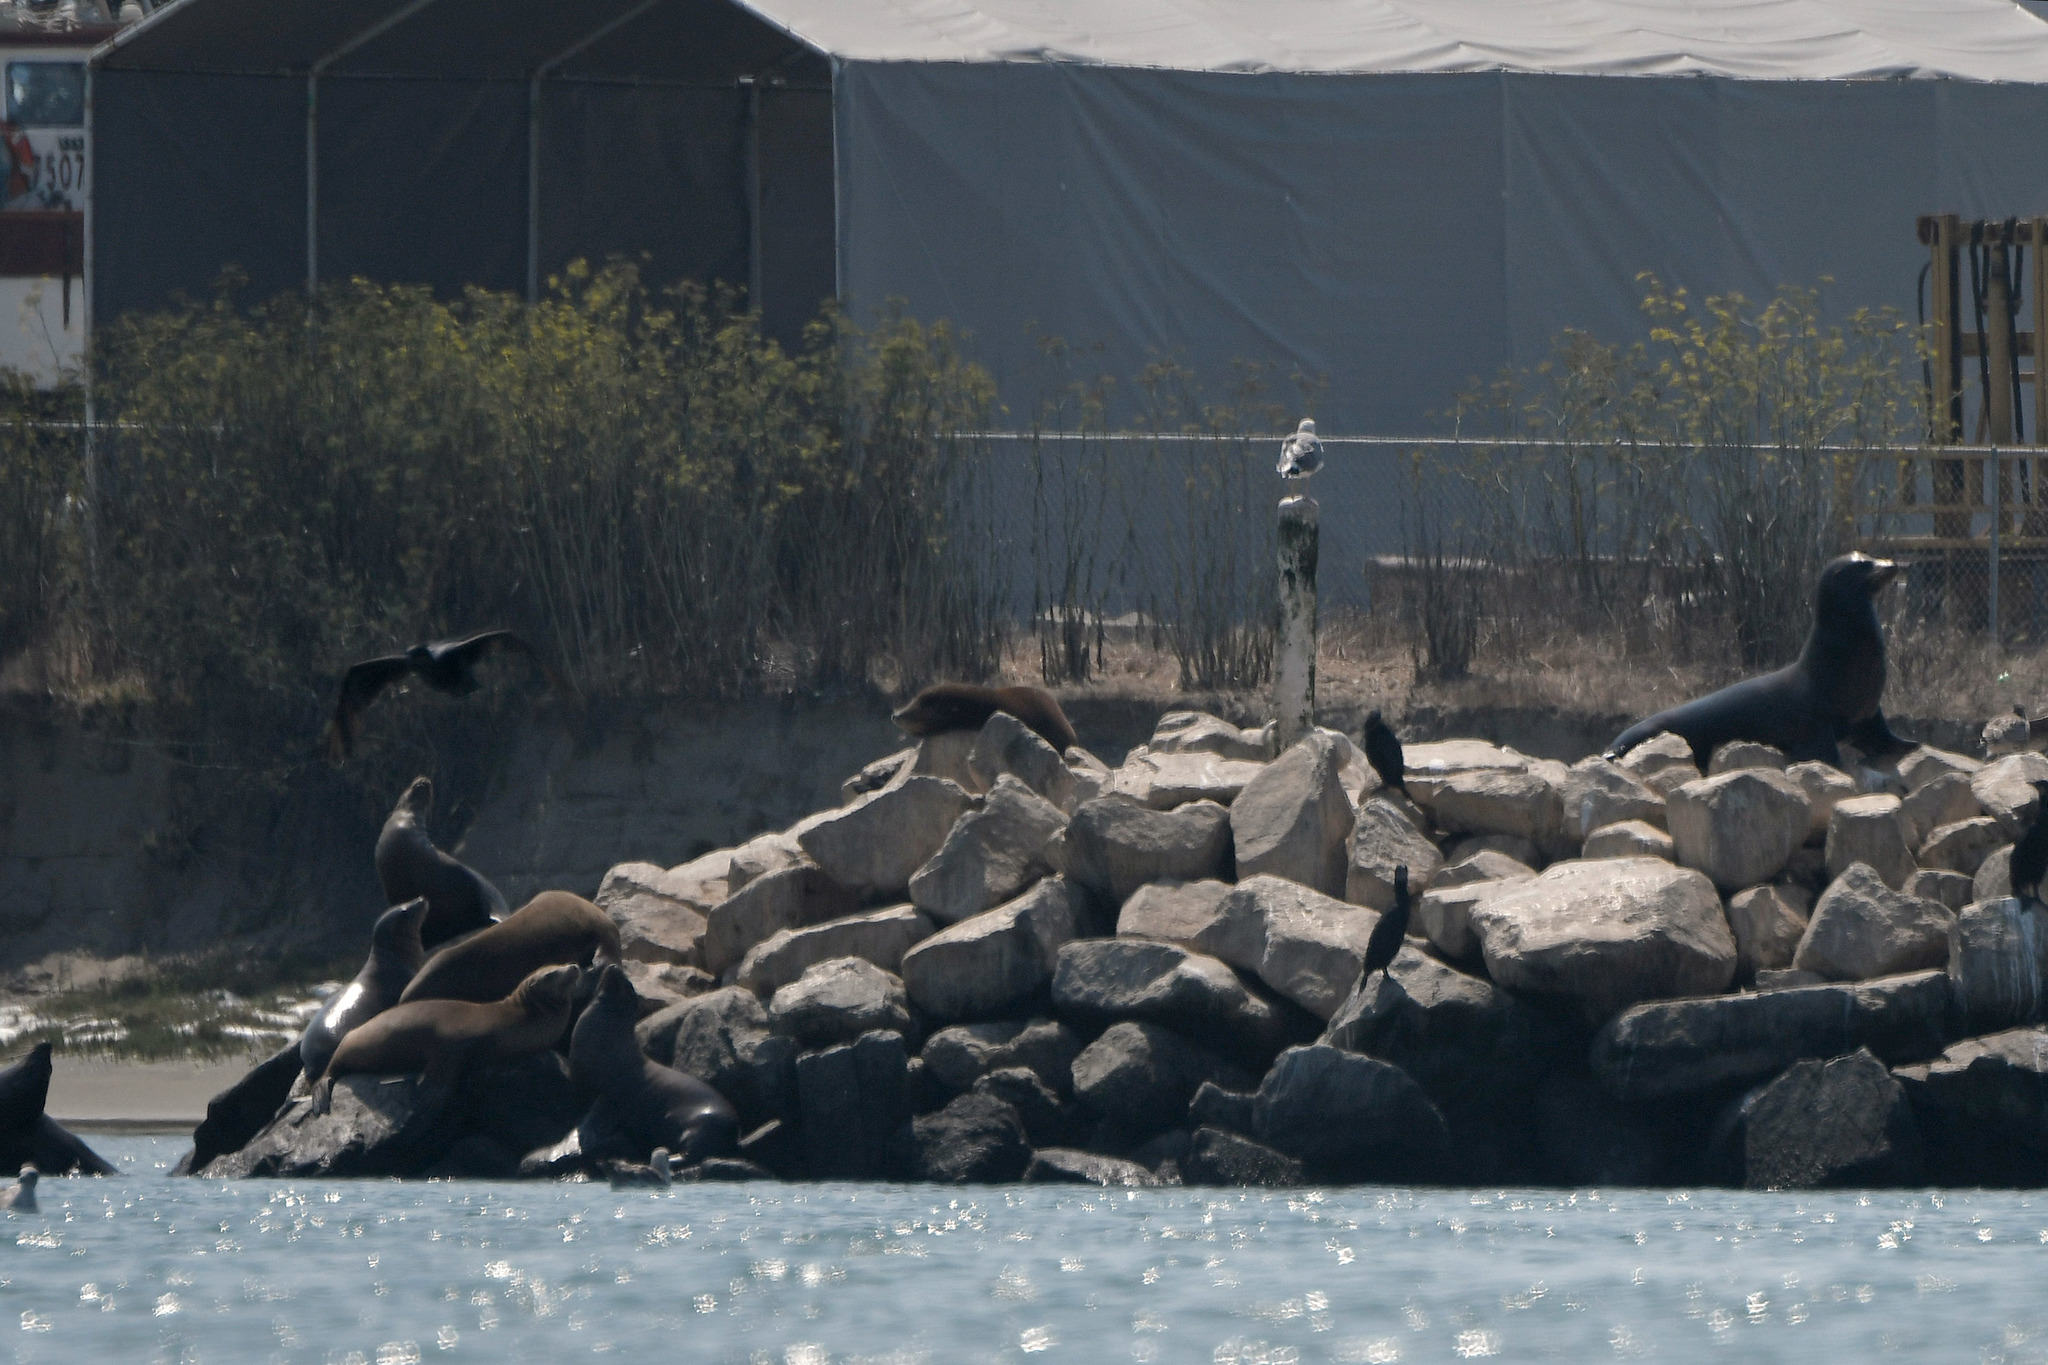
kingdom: Animalia
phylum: Chordata
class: Mammalia
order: Carnivora
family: Otariidae
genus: Zalophus
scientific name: Zalophus californianus
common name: California sea lion
